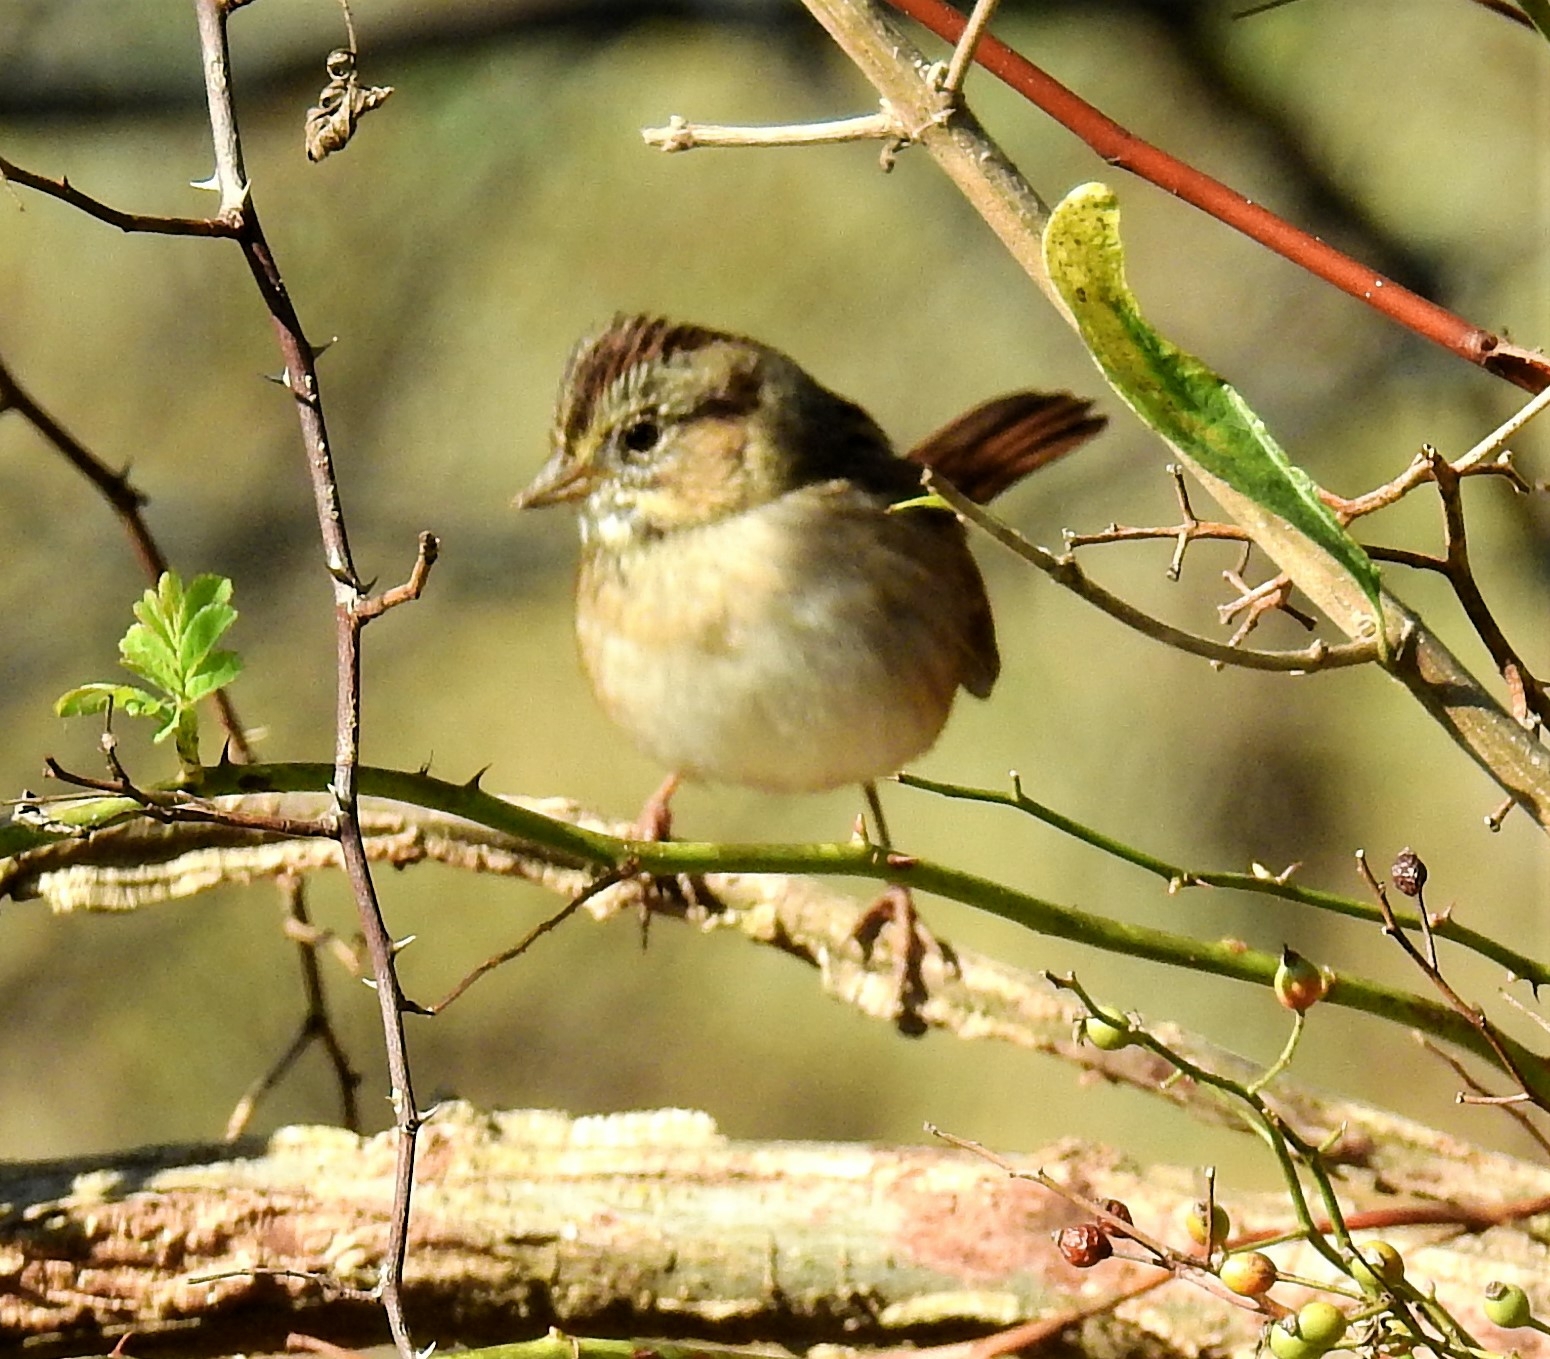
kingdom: Animalia
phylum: Chordata
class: Aves
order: Passeriformes
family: Passerellidae
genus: Melospiza
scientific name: Melospiza georgiana
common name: Swamp sparrow
